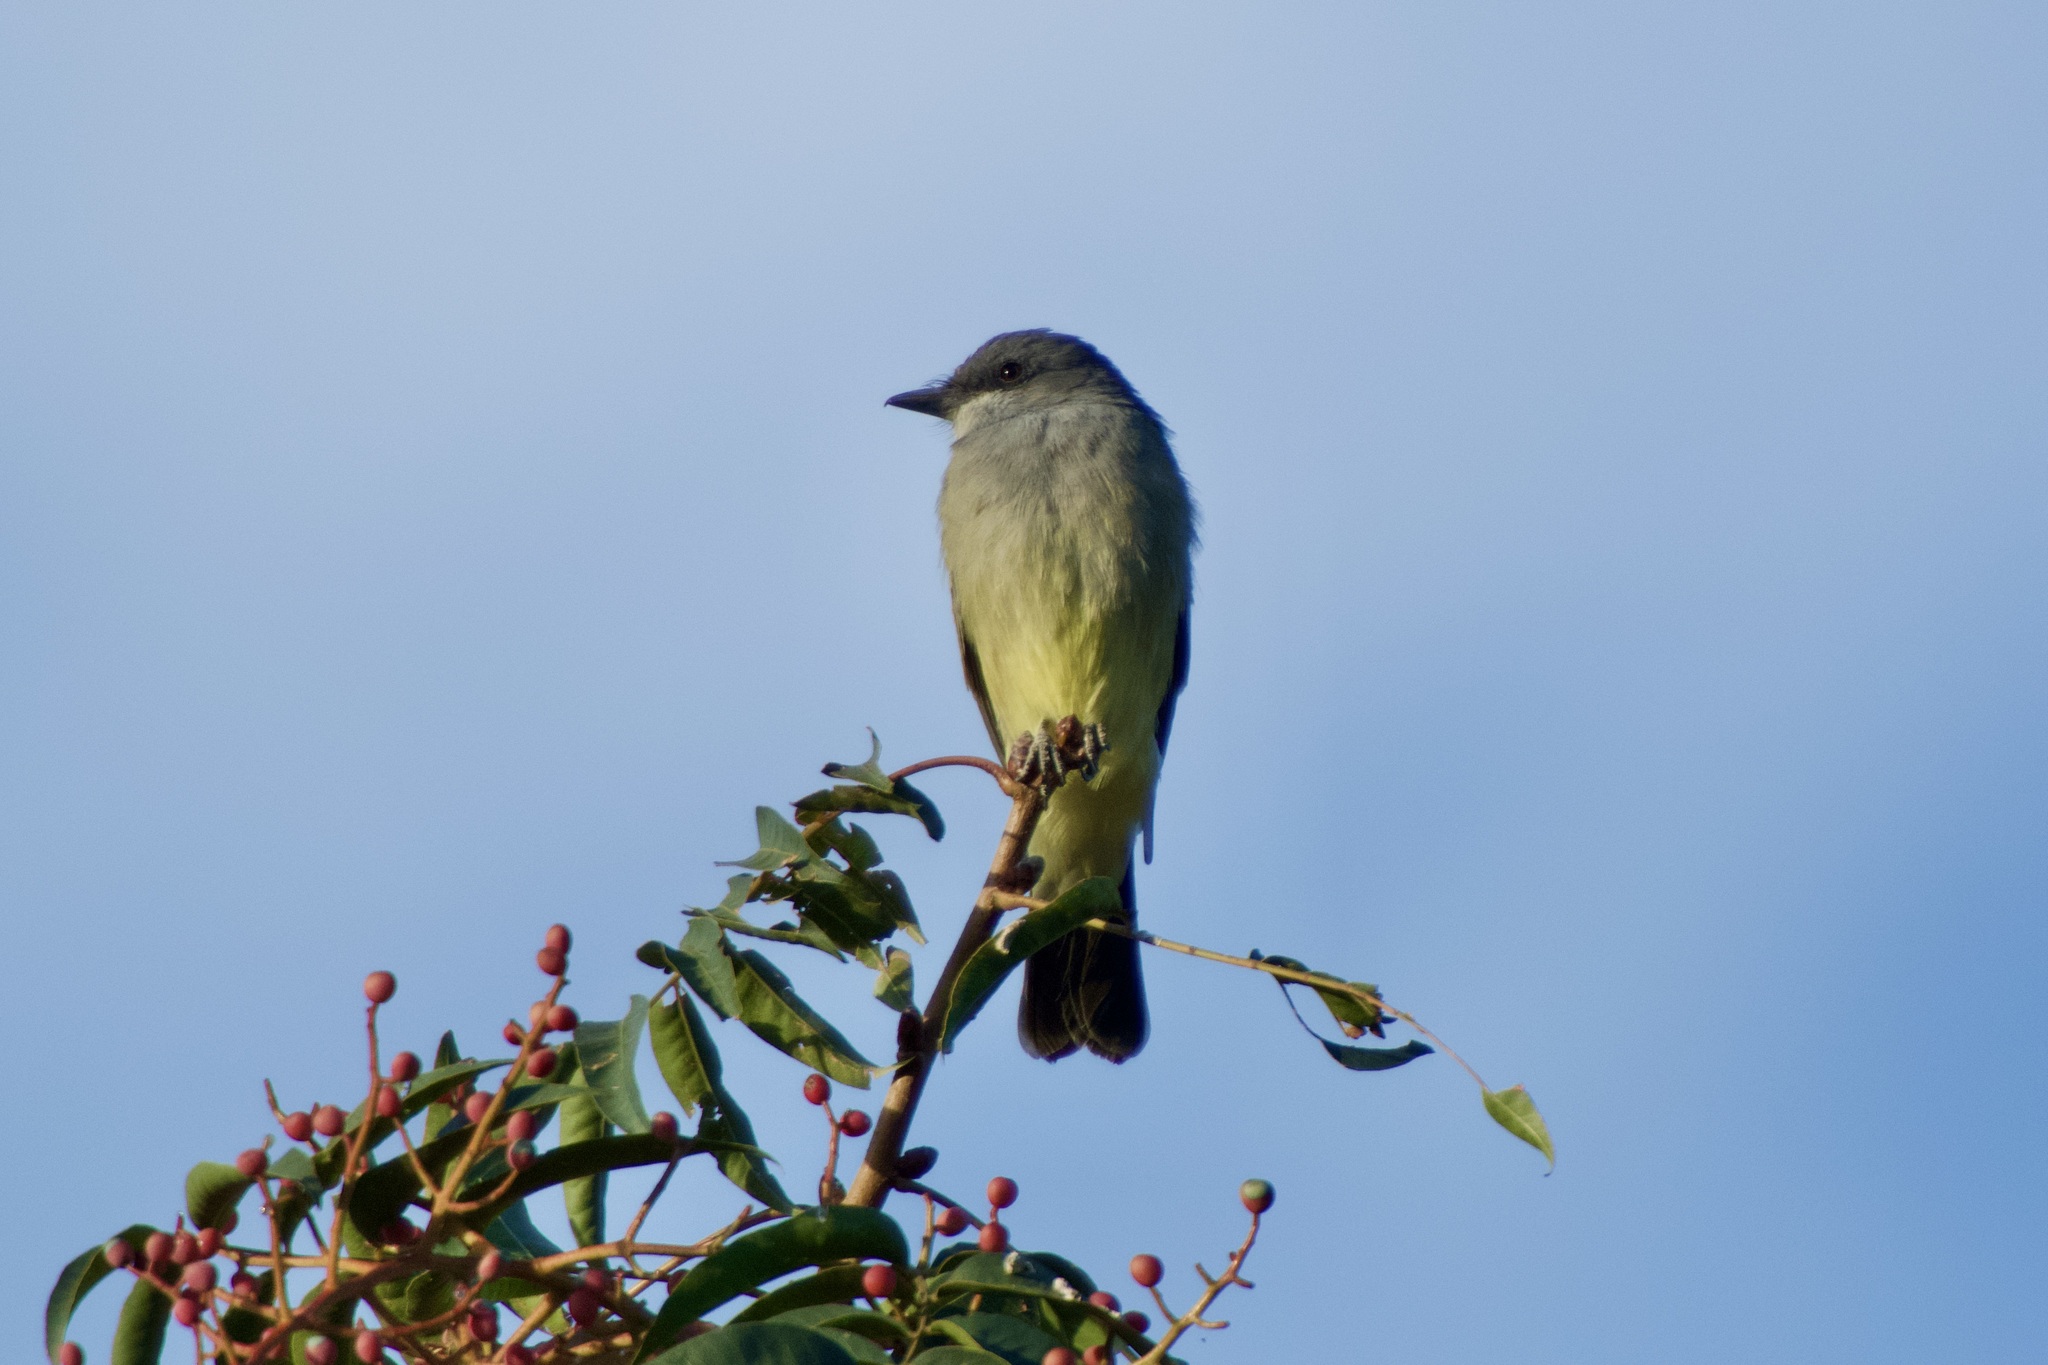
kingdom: Animalia
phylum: Chordata
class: Aves
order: Passeriformes
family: Tyrannidae
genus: Tyrannus
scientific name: Tyrannus vociferans
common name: Cassin's kingbird
